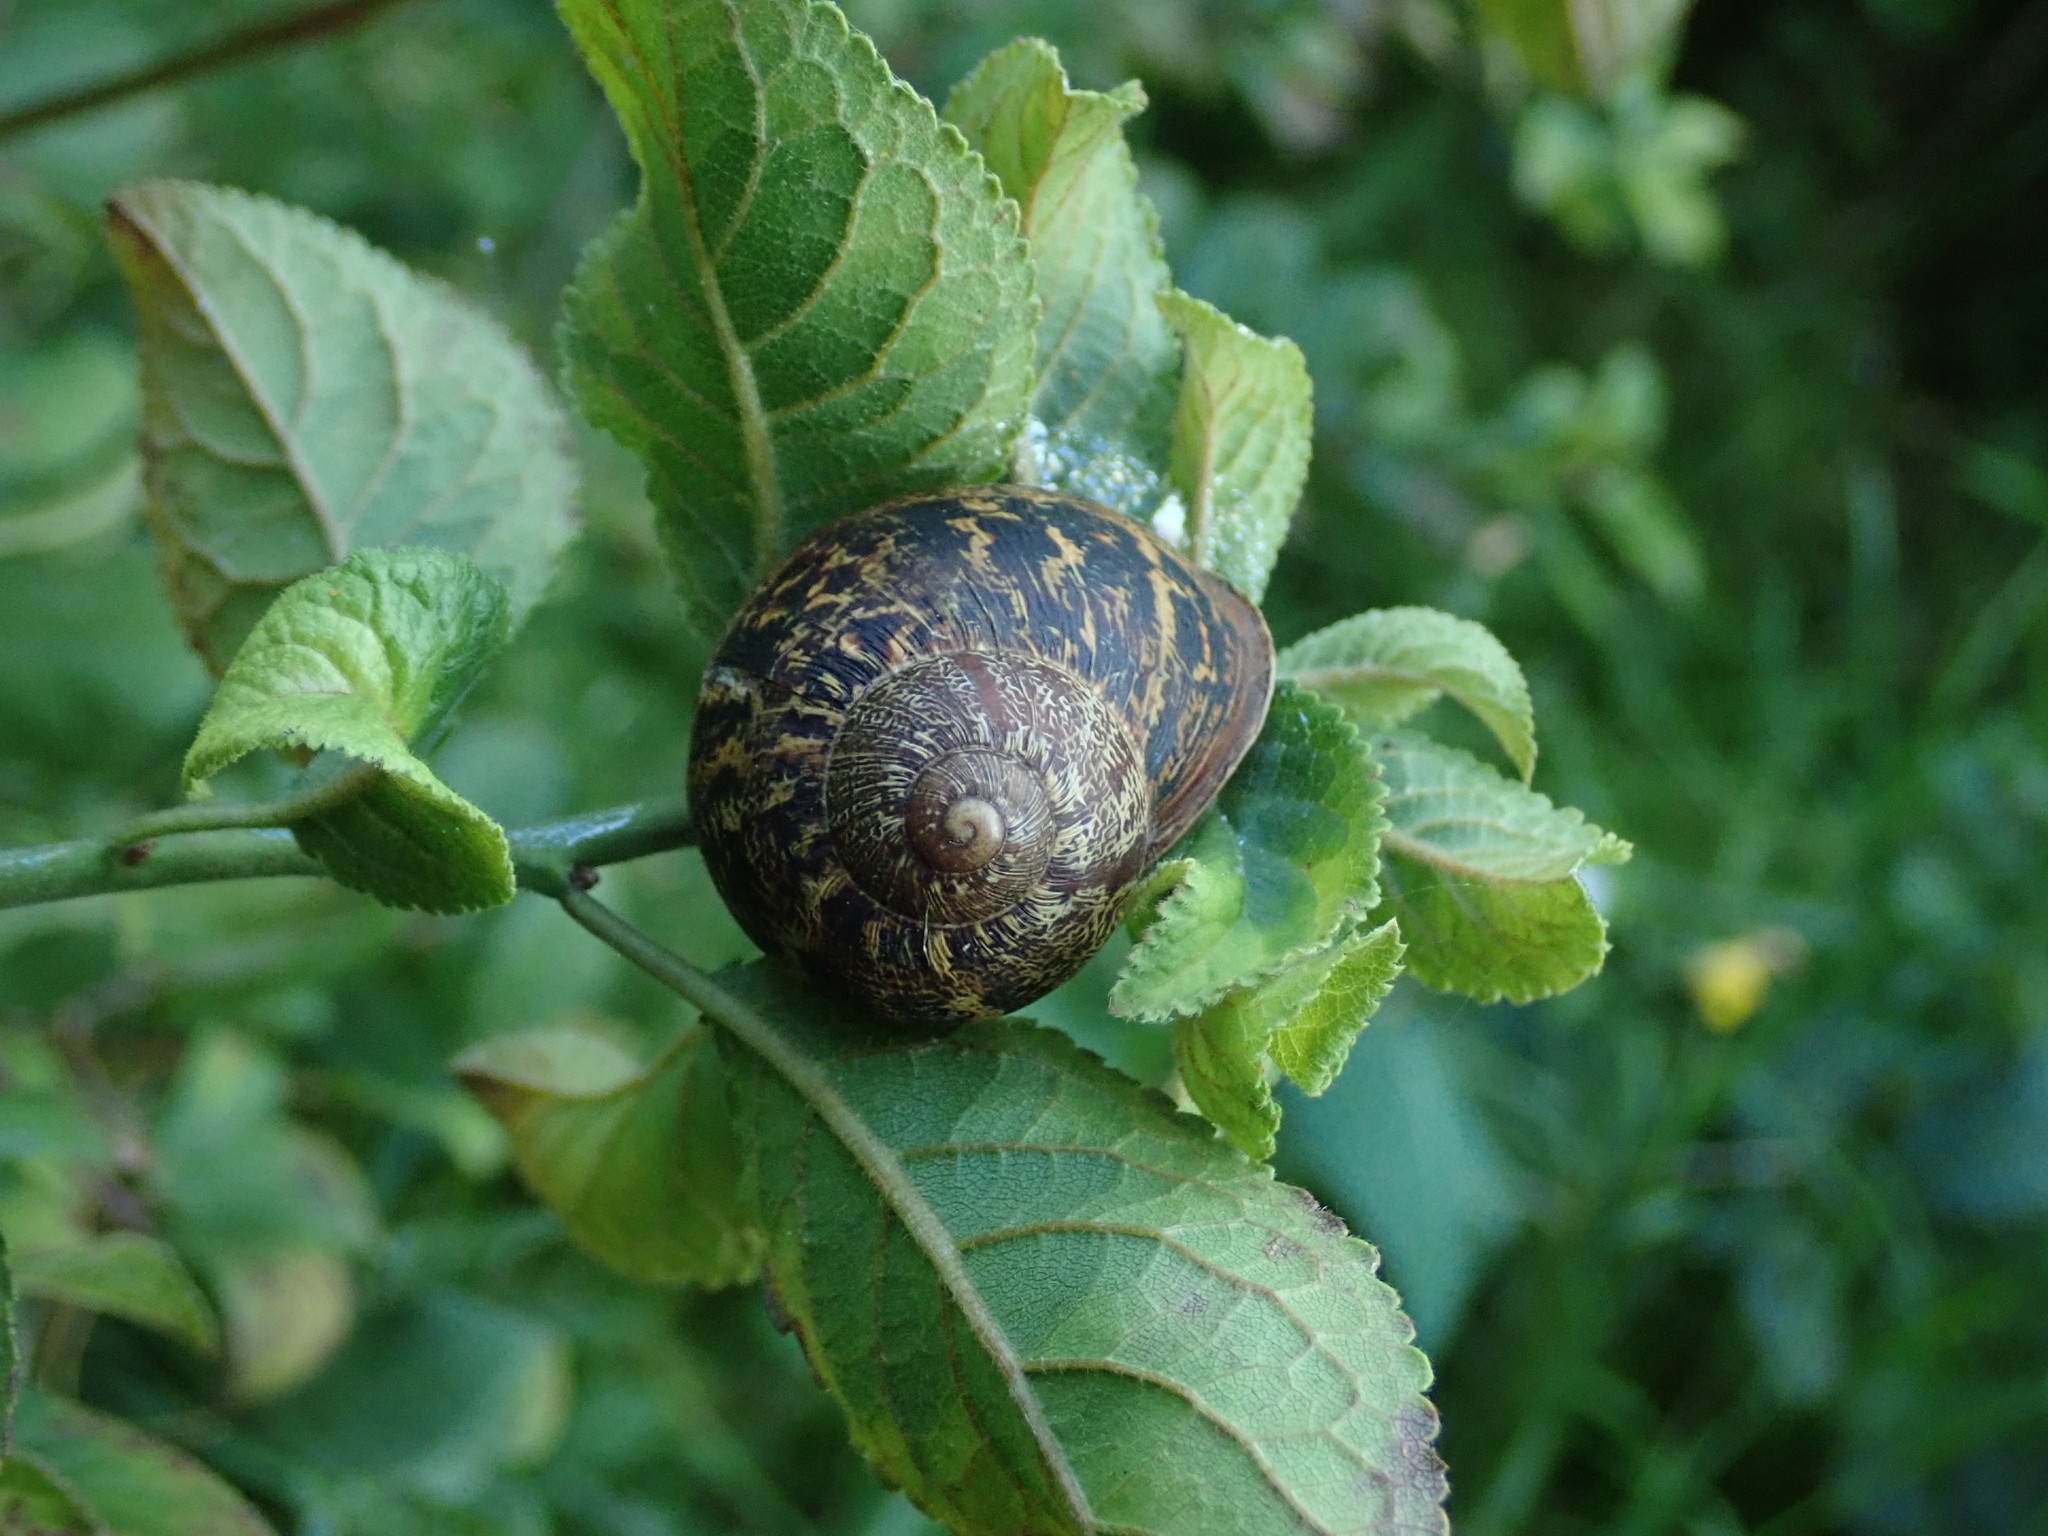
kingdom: Animalia
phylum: Mollusca
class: Gastropoda
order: Stylommatophora
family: Helicidae
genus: Cornu
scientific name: Cornu aspersum
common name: Brown garden snail
